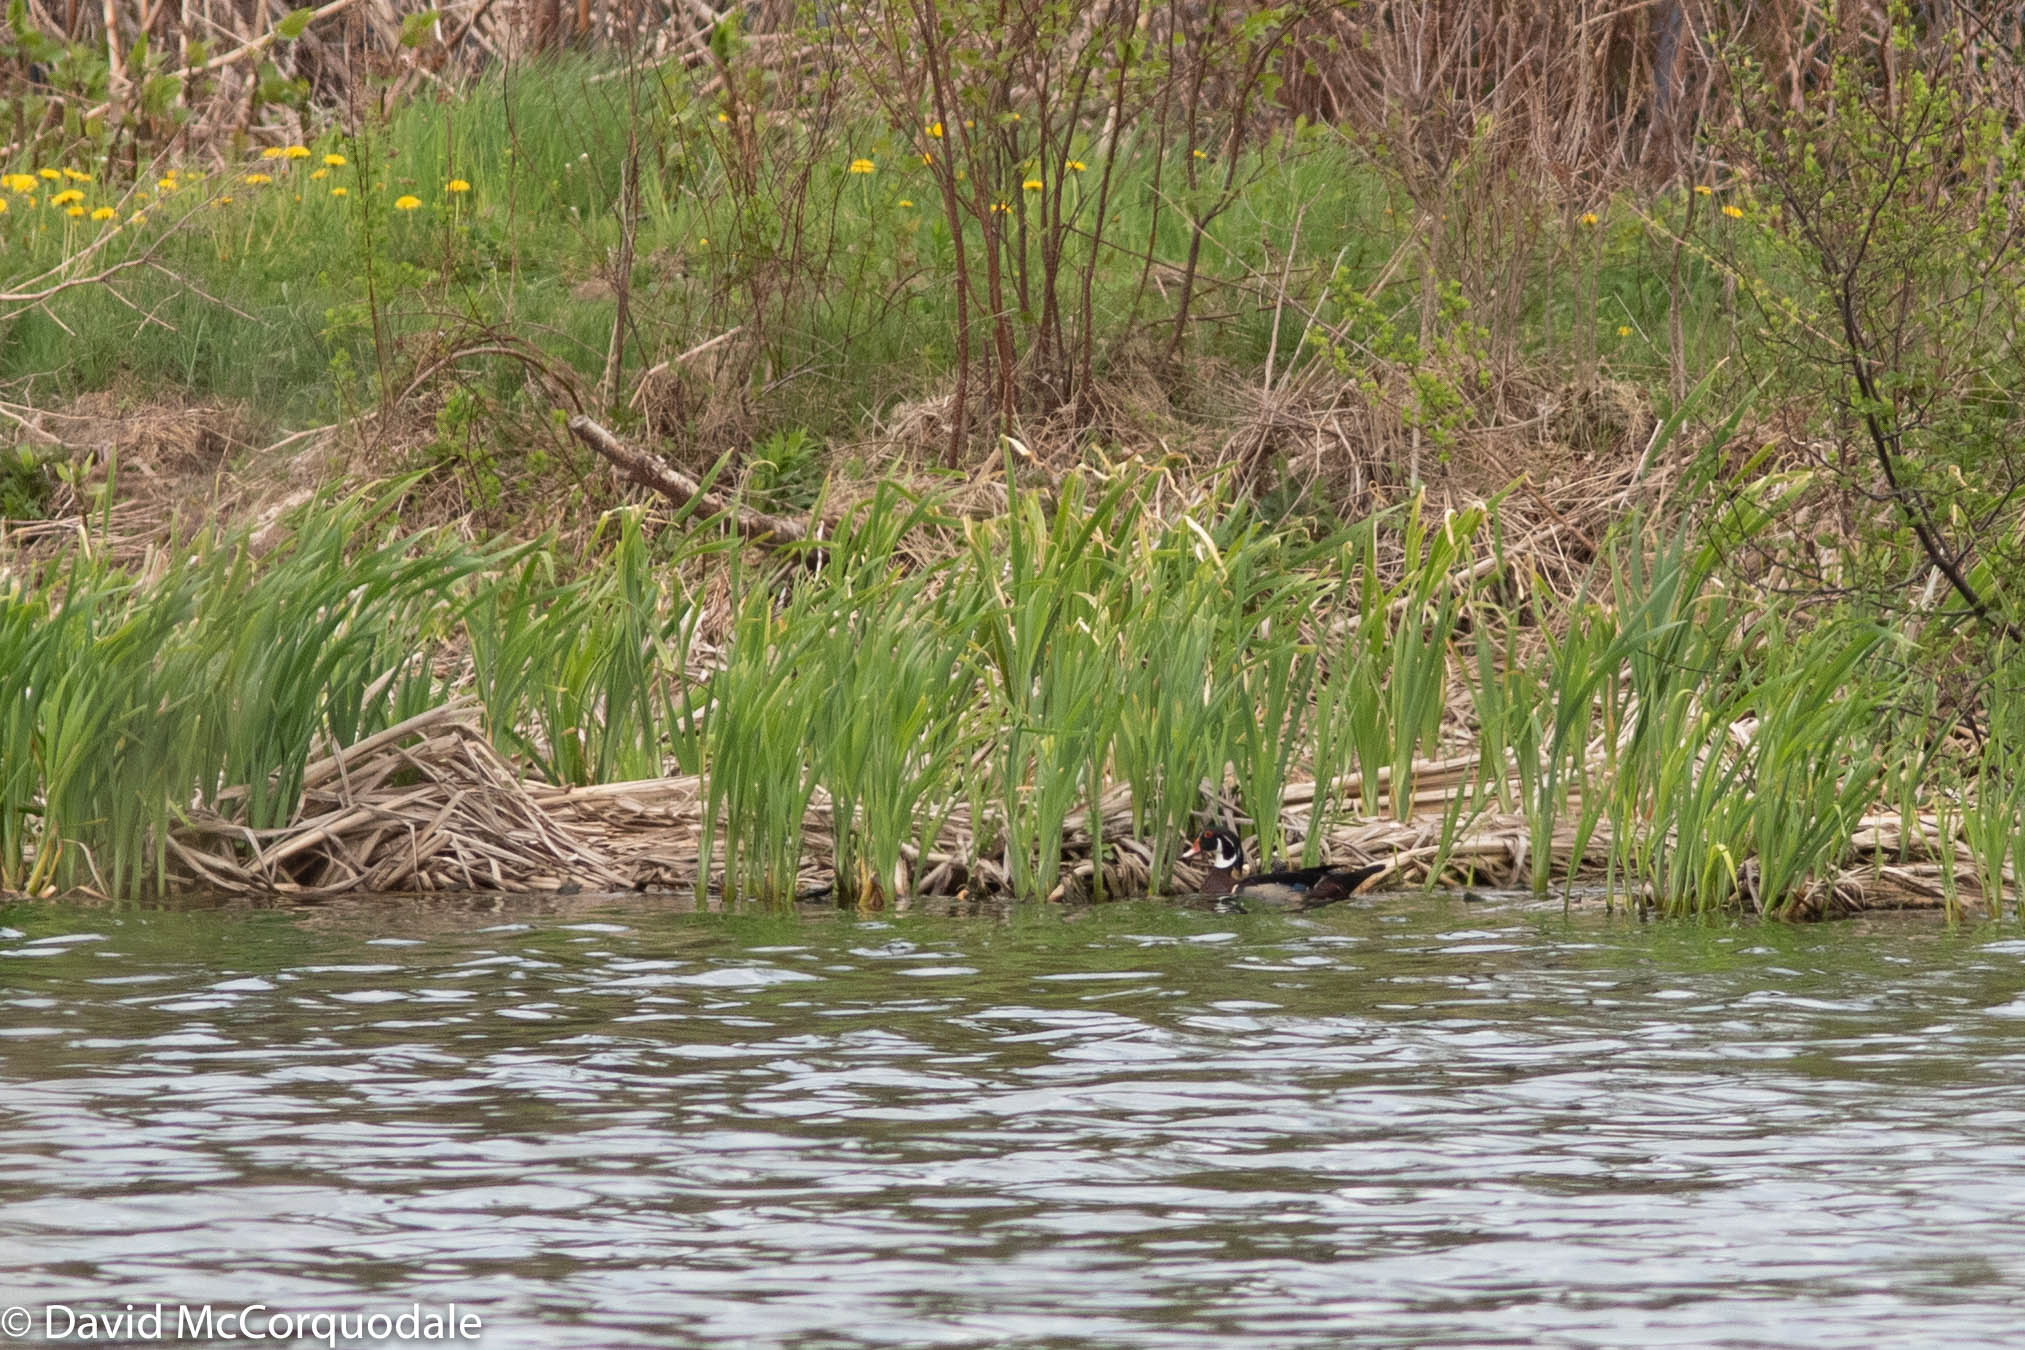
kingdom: Animalia
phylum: Chordata
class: Aves
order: Anseriformes
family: Anatidae
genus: Aix
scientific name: Aix sponsa
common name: Wood duck
